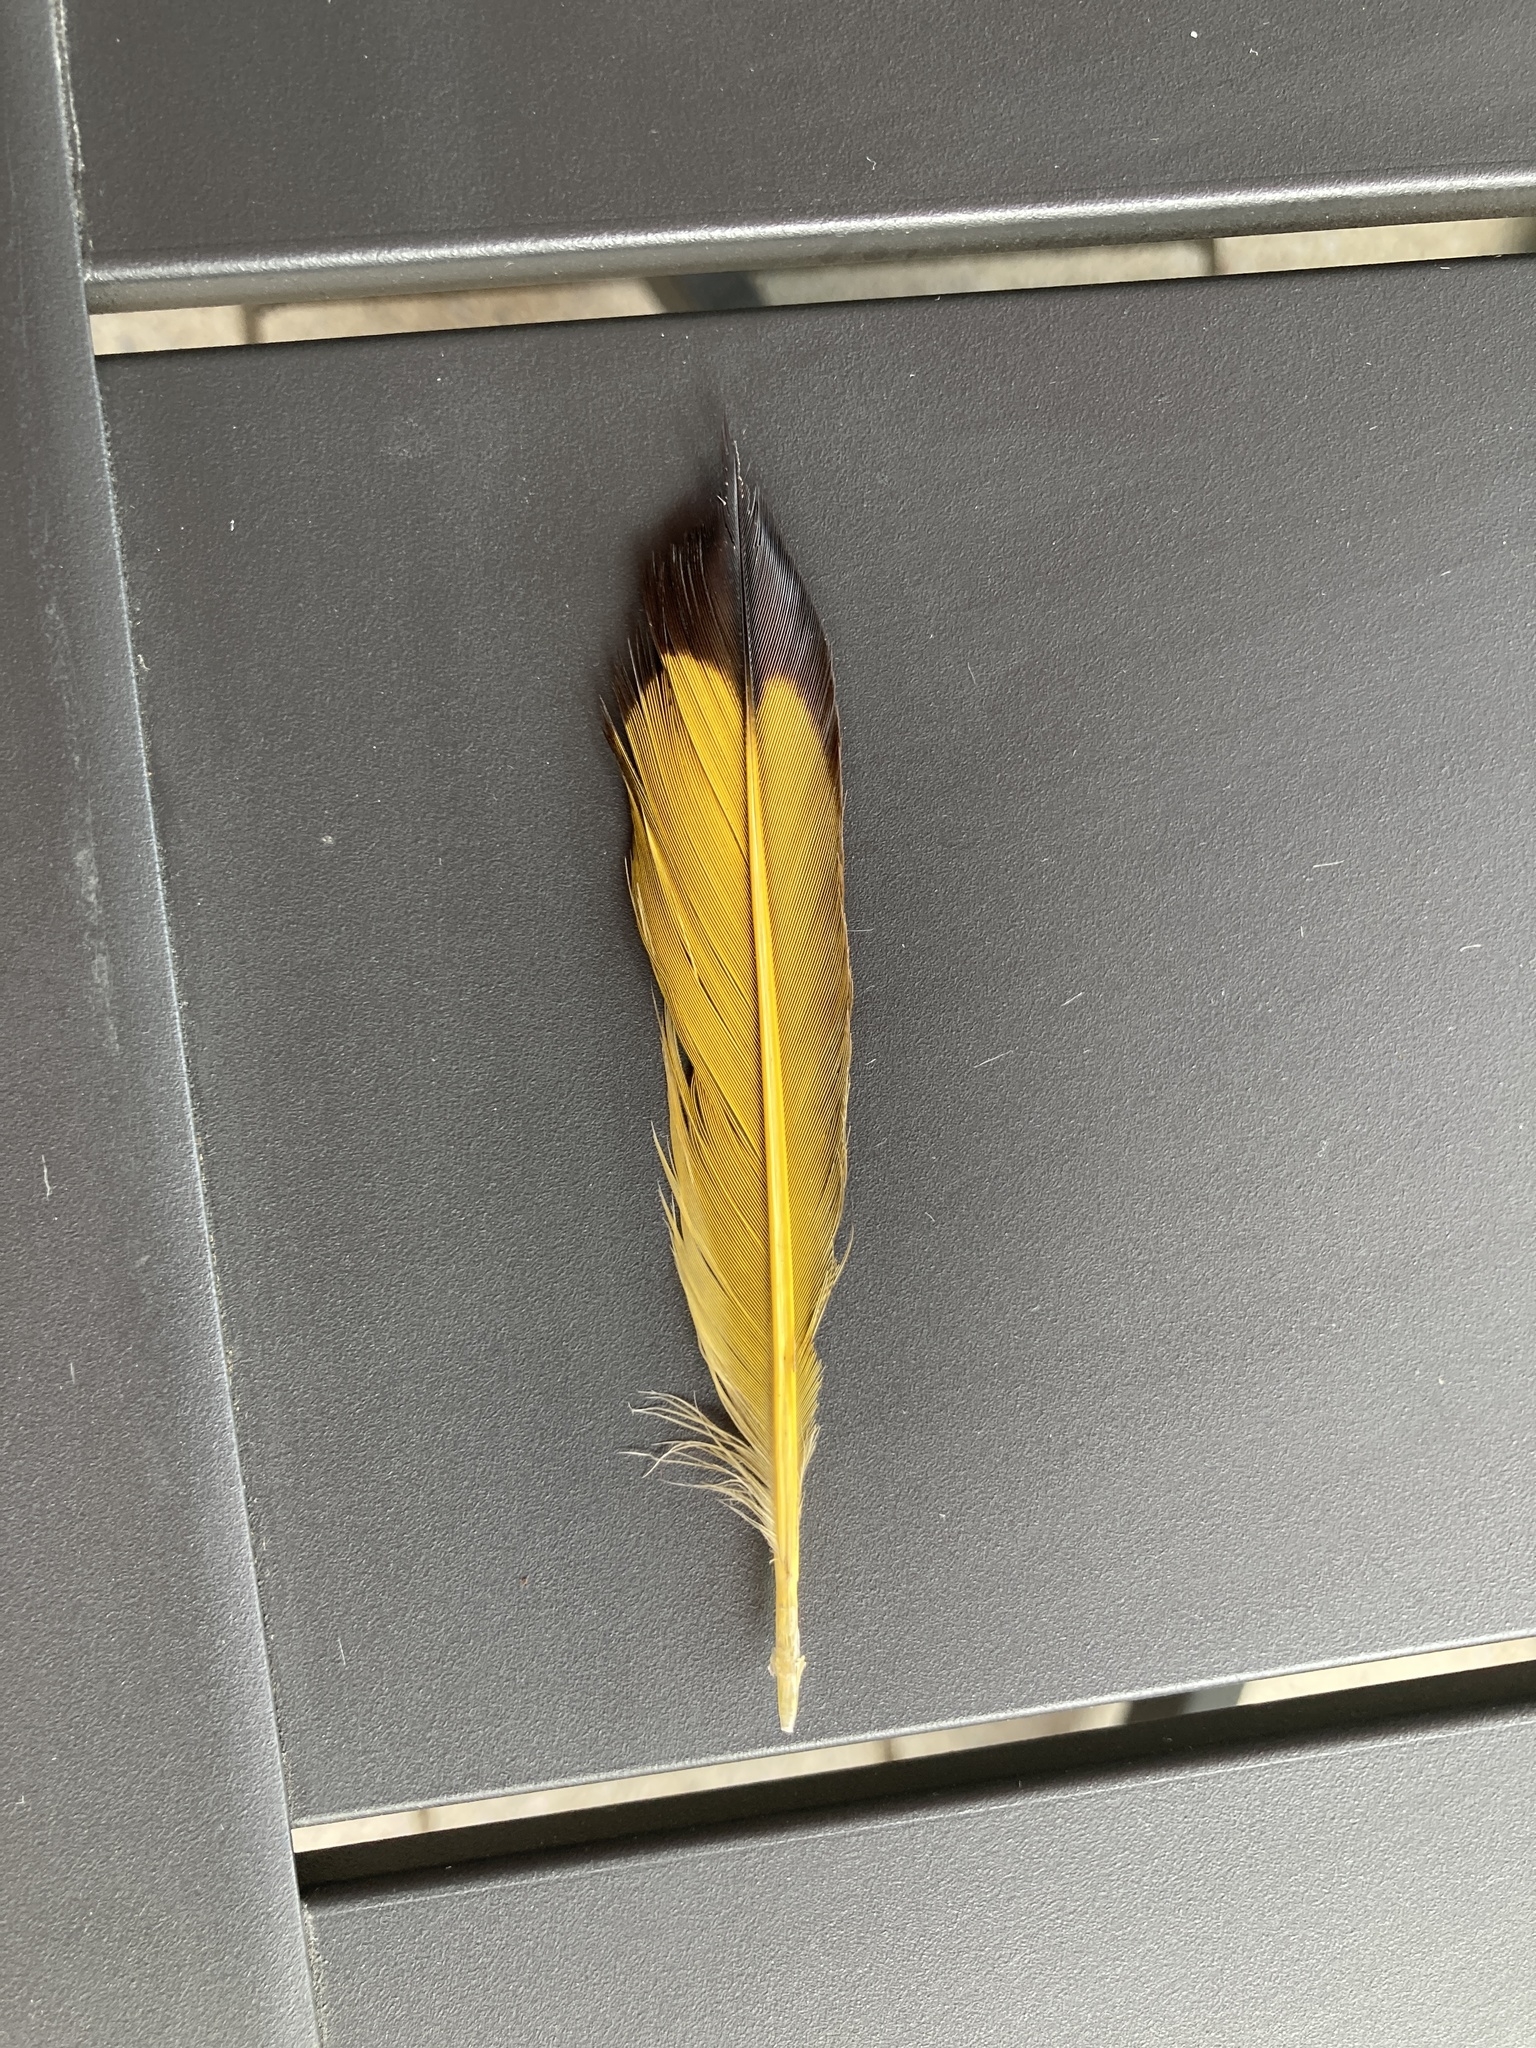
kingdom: Animalia
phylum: Chordata
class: Aves
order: Piciformes
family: Picidae
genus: Colaptes
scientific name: Colaptes auratus
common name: Northern flicker
